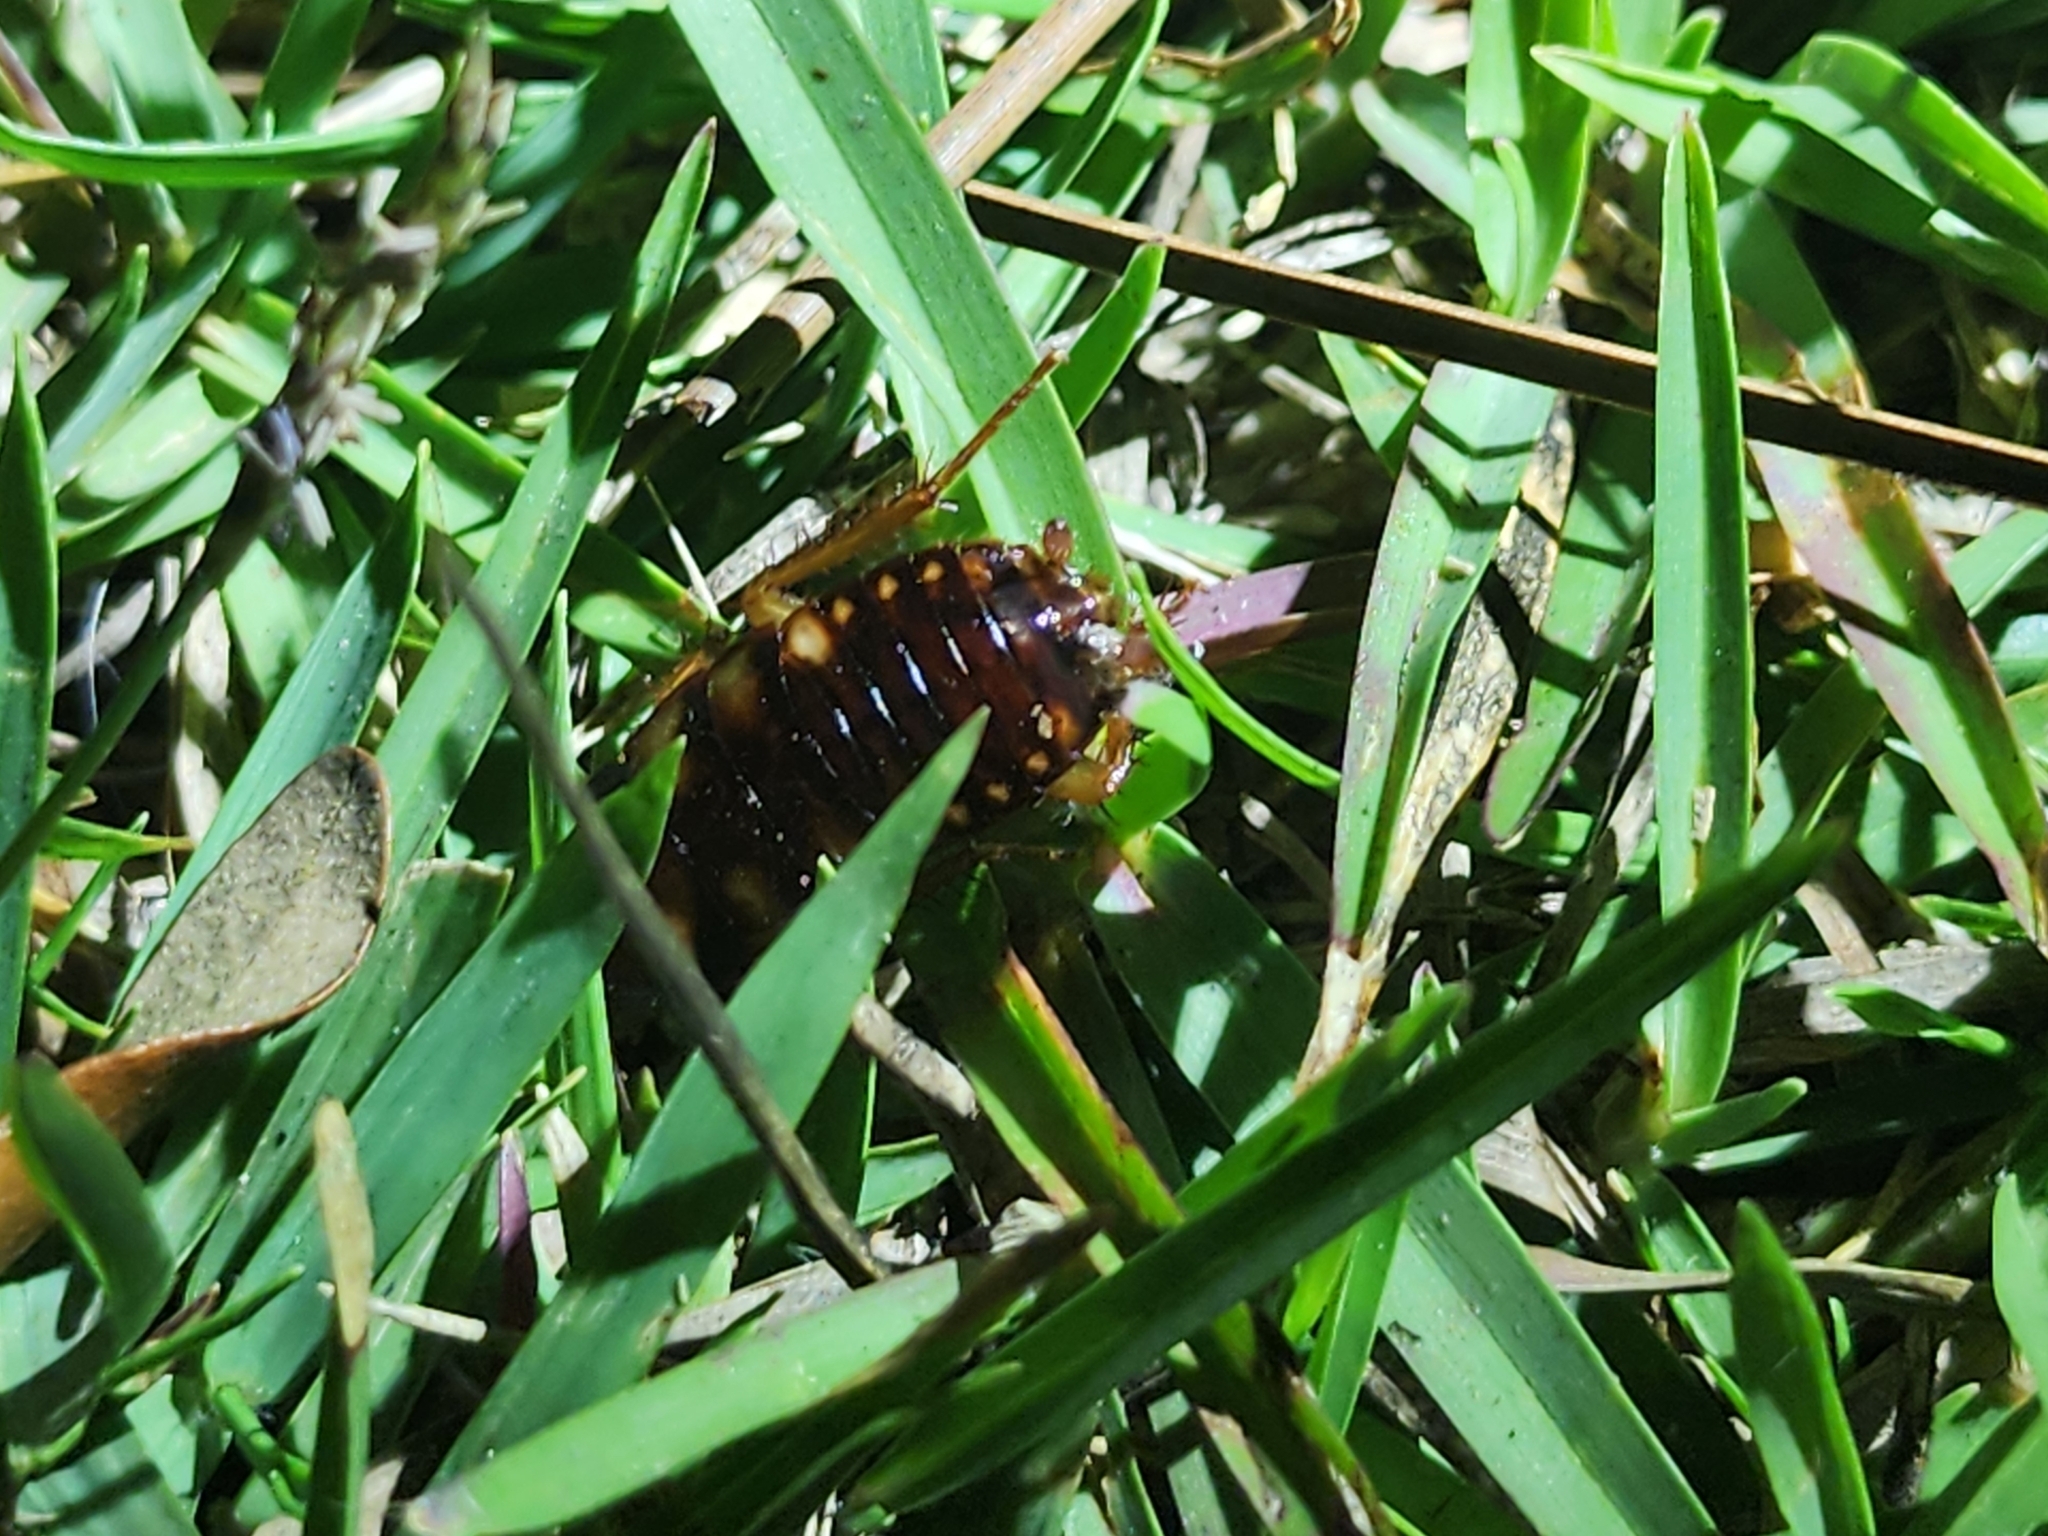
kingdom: Animalia
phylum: Arthropoda
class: Insecta
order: Blattodea
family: Blattidae
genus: Periplaneta
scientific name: Periplaneta australasiae
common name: Australian cockroach
